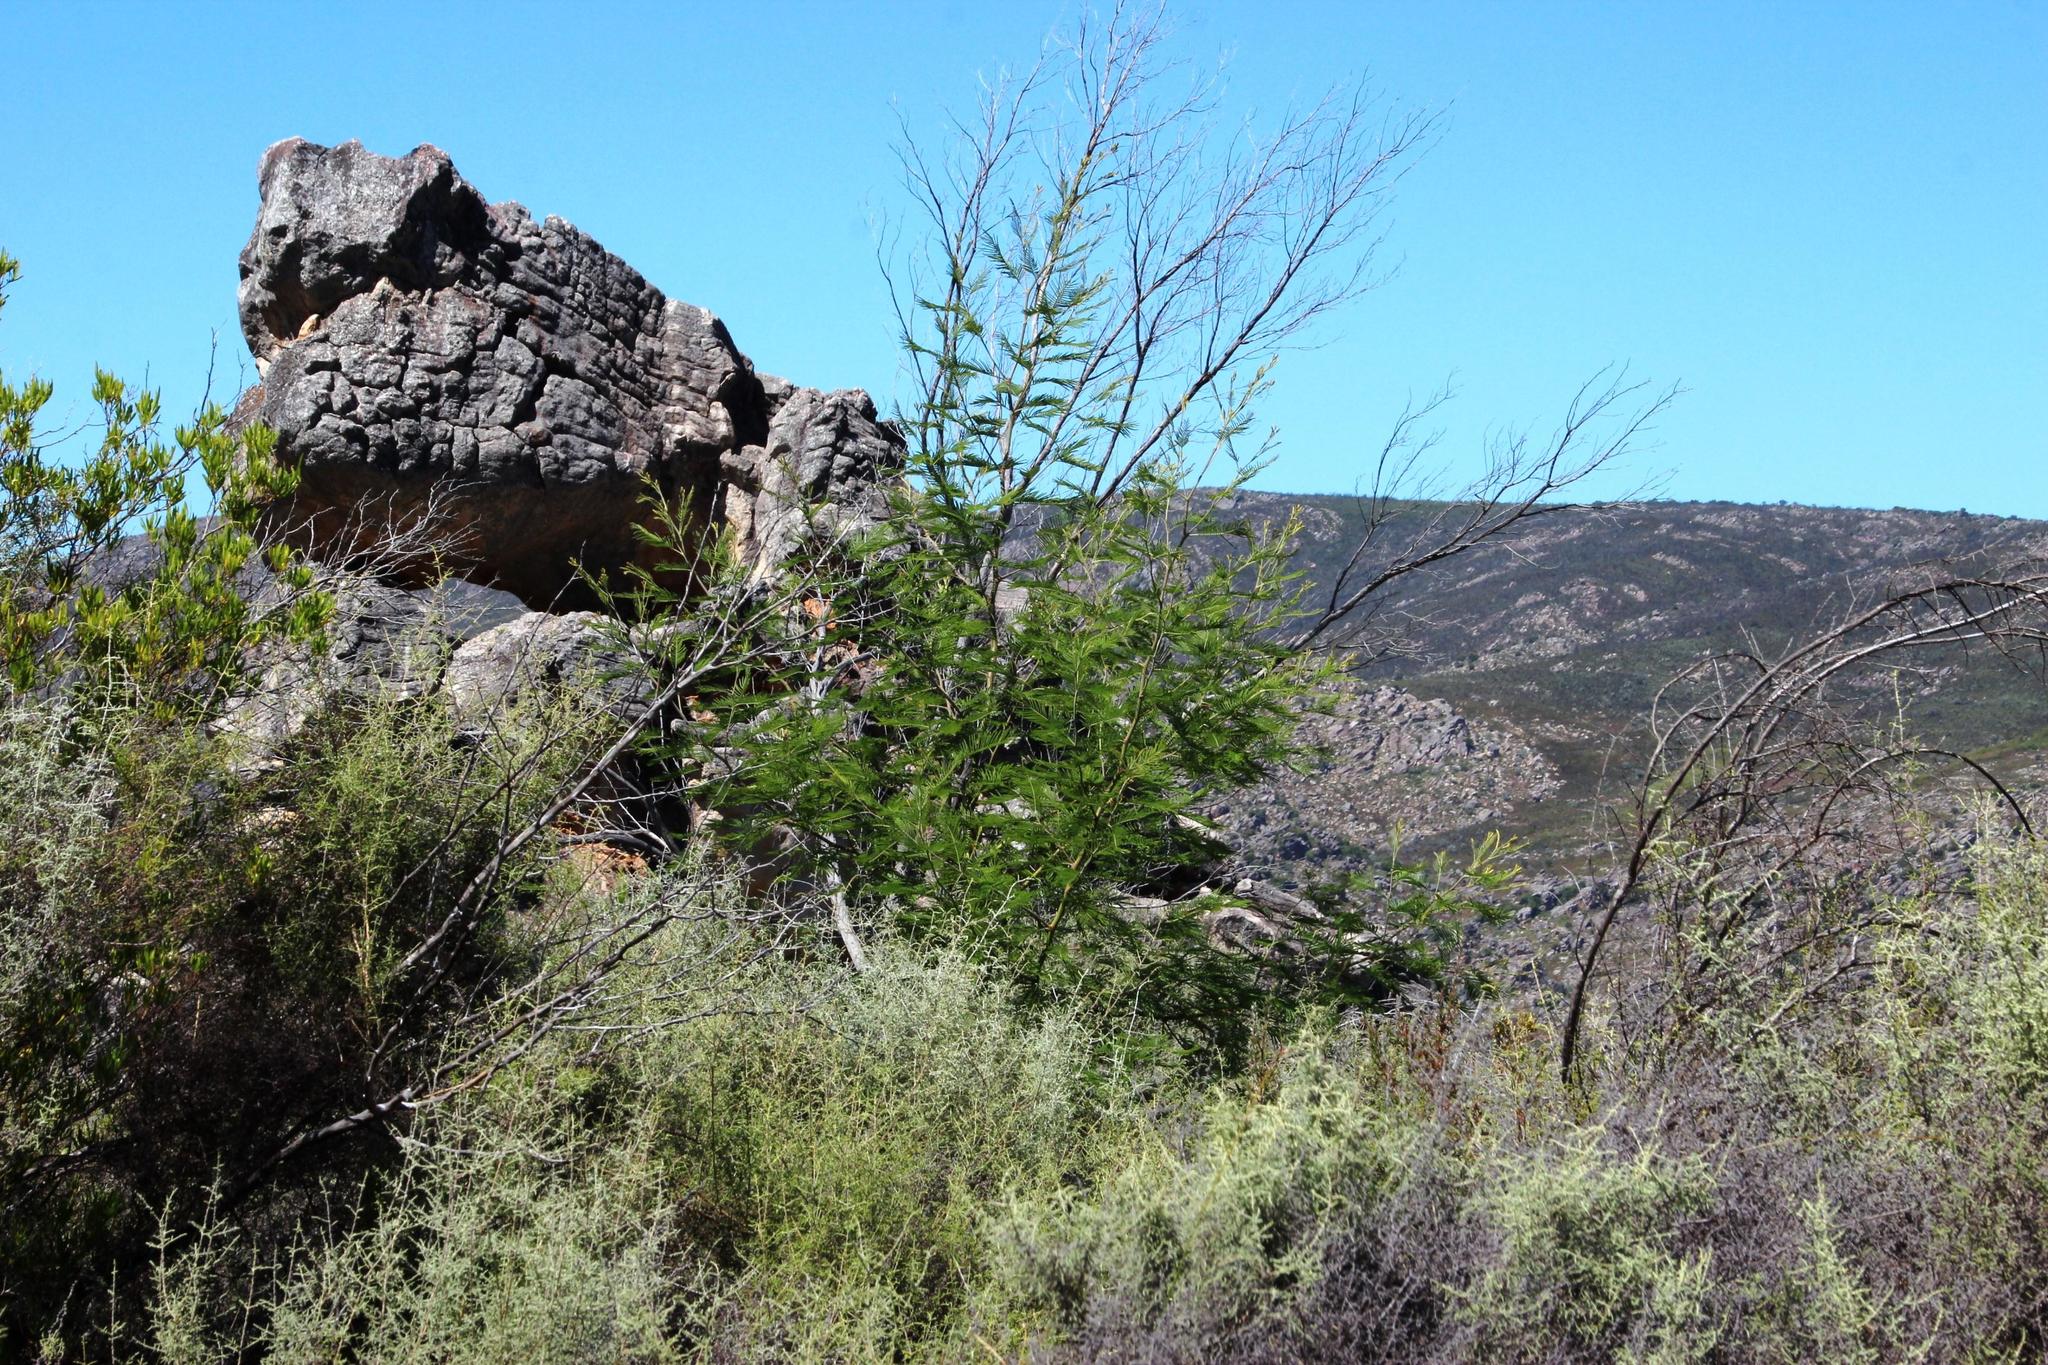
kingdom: Plantae
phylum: Tracheophyta
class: Magnoliopsida
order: Fabales
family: Fabaceae
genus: Acacia
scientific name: Acacia mearnsii
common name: Black wattle
